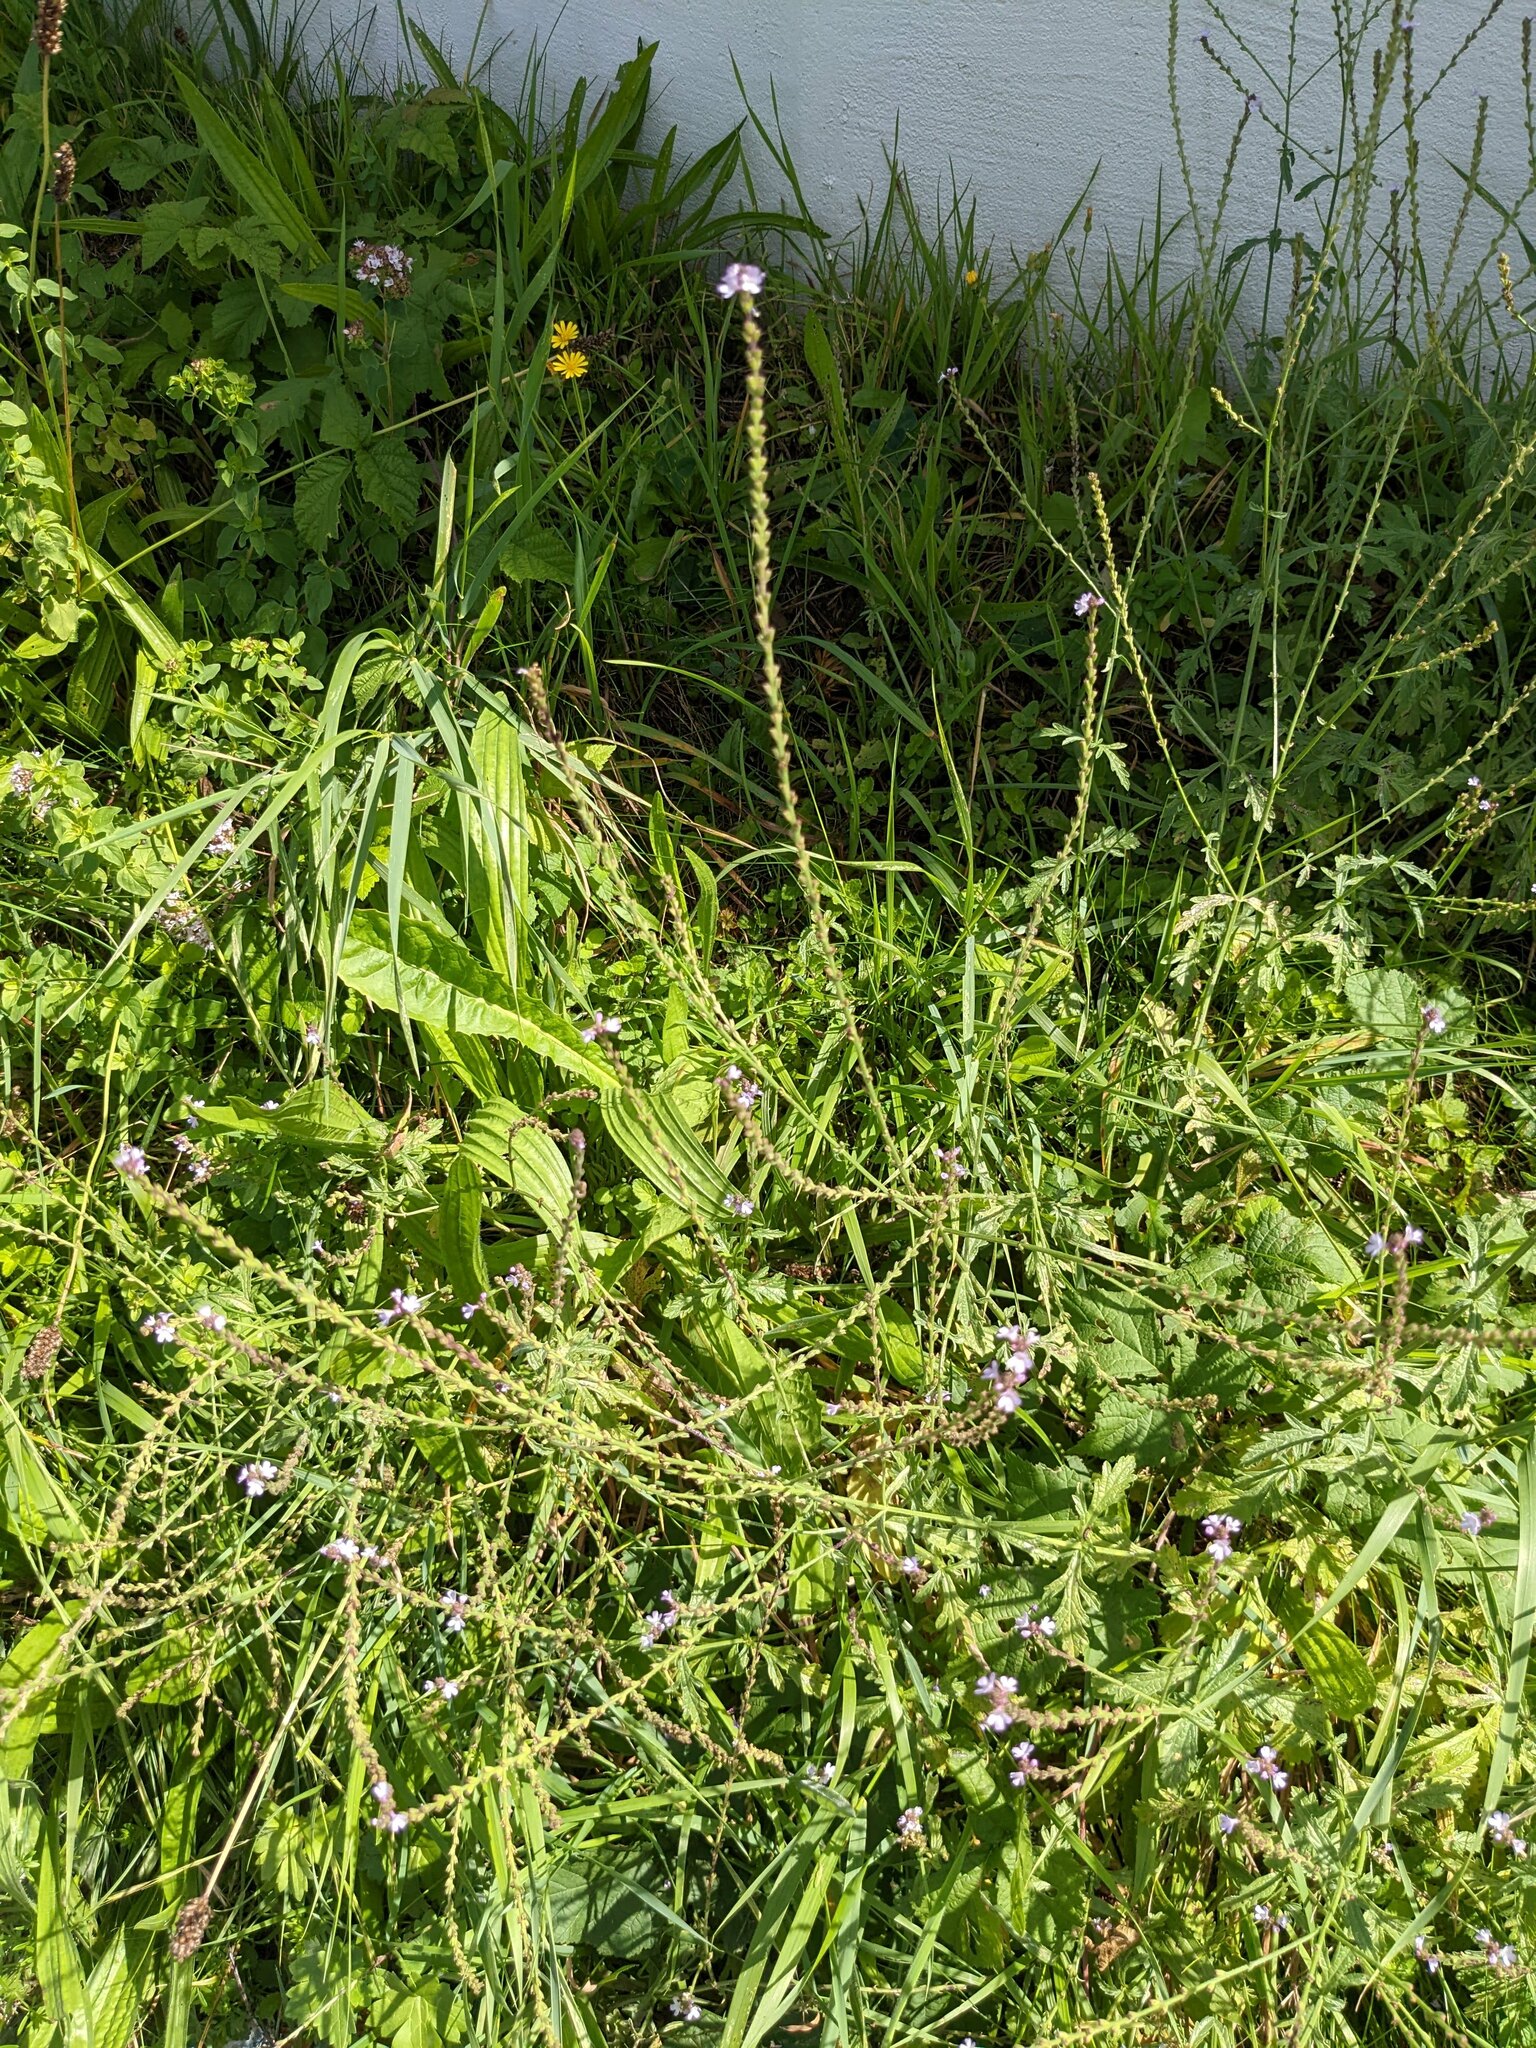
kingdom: Plantae
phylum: Tracheophyta
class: Magnoliopsida
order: Lamiales
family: Verbenaceae
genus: Verbena
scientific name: Verbena officinalis
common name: Vervain
